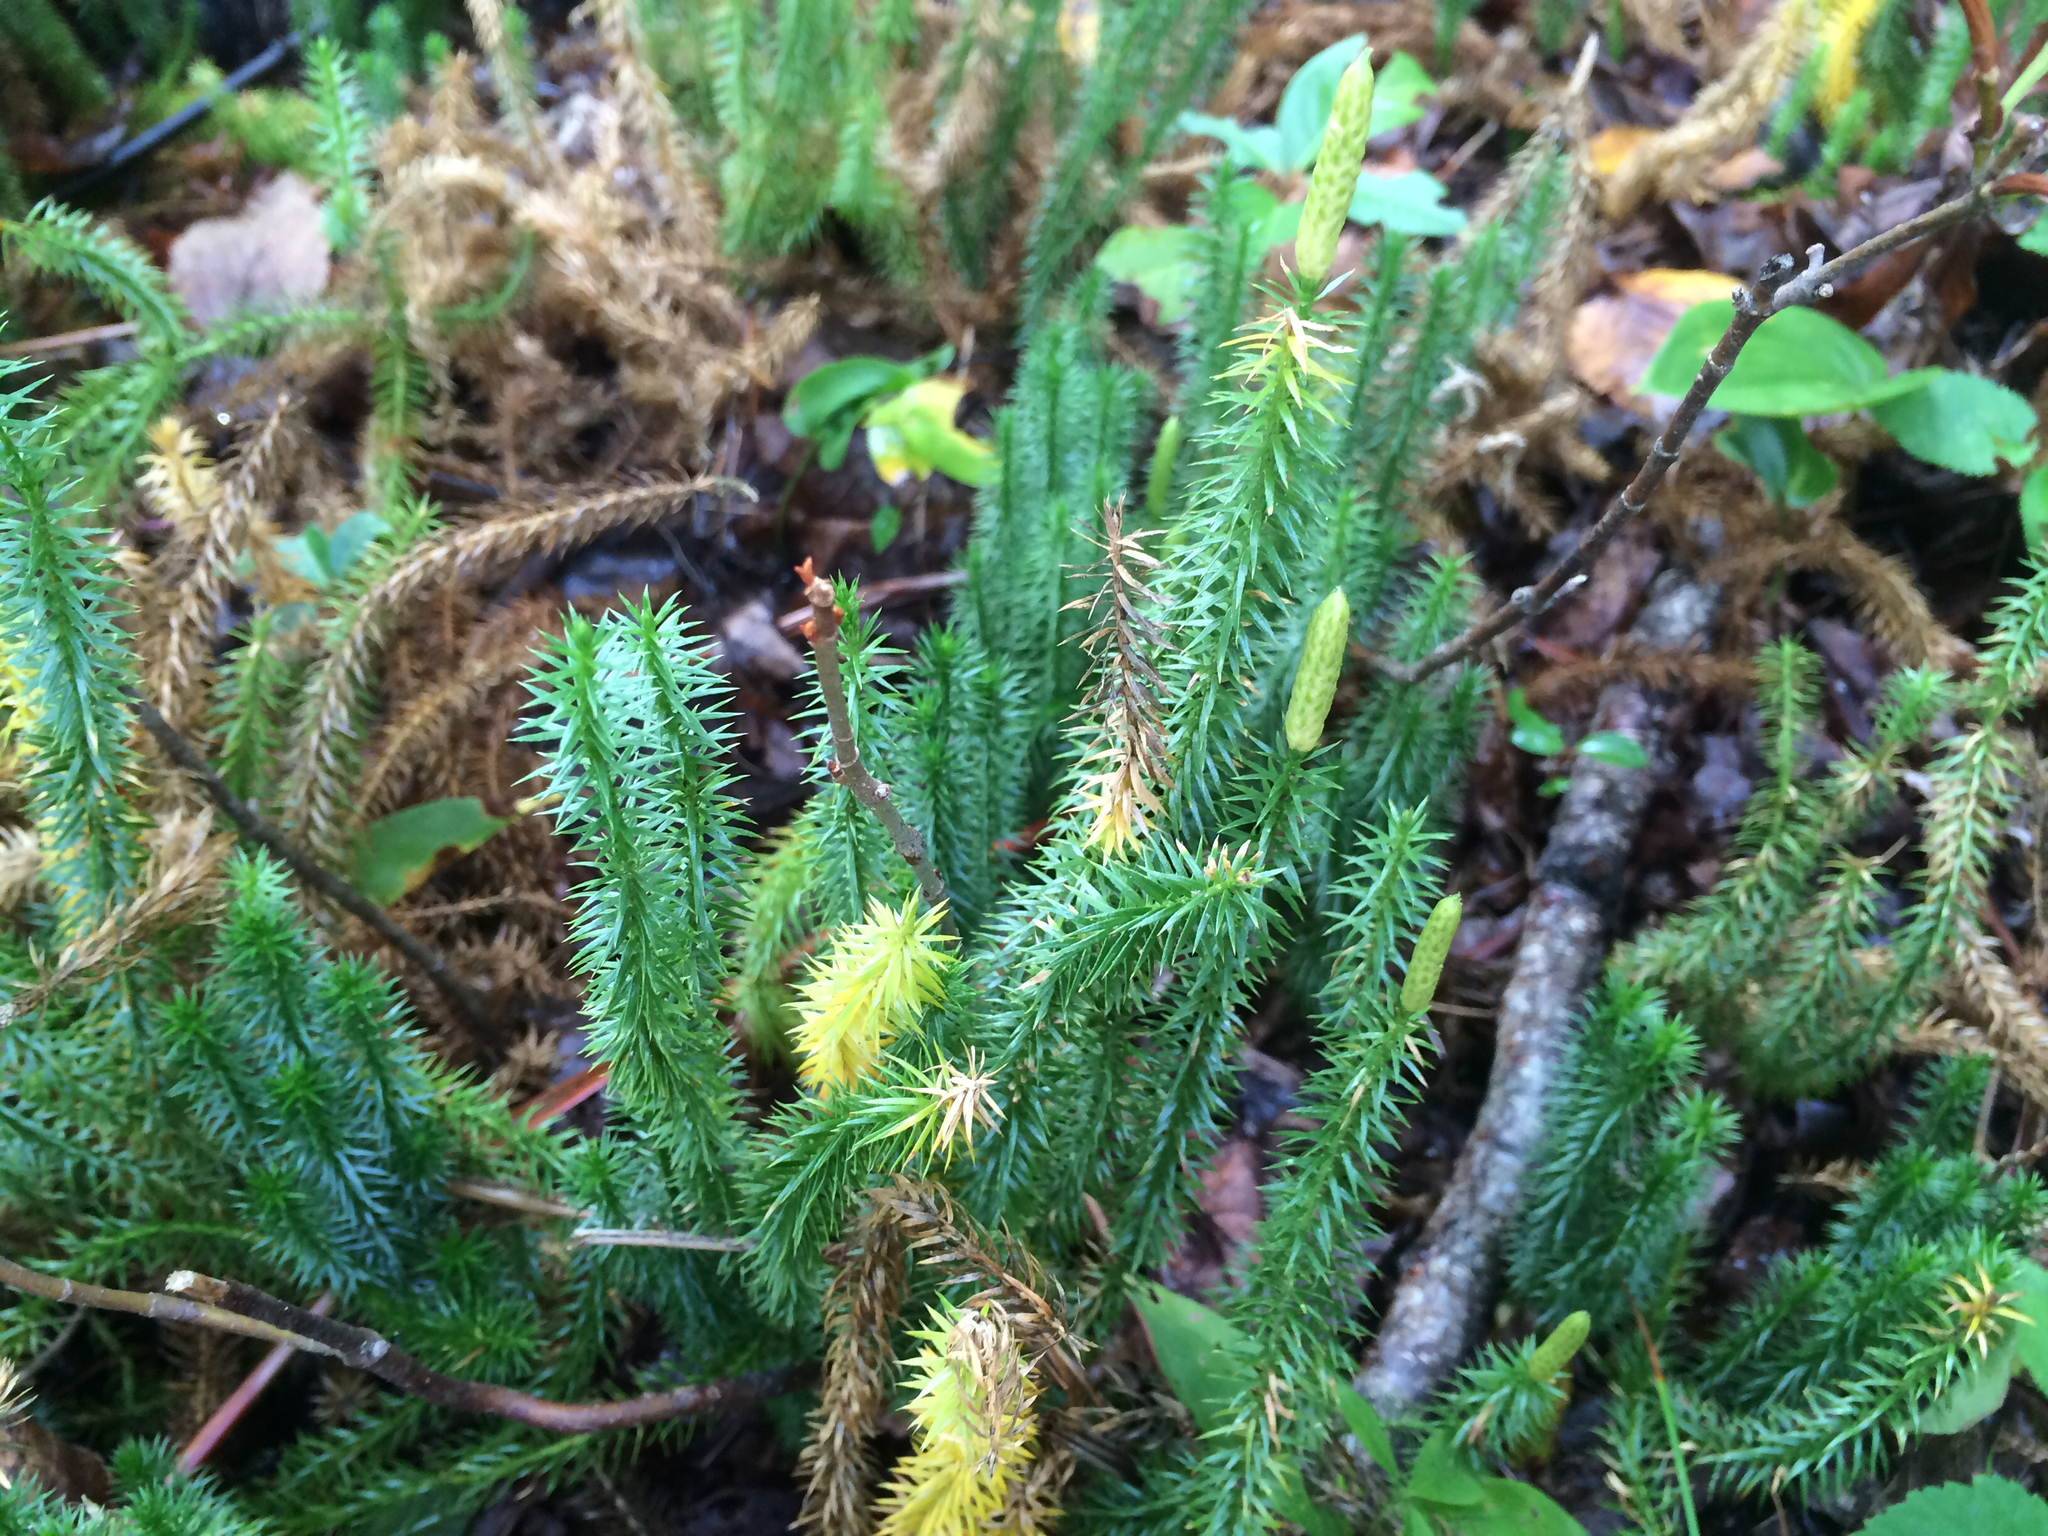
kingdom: Plantae
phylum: Tracheophyta
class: Lycopodiopsida
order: Lycopodiales
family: Lycopodiaceae
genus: Spinulum
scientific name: Spinulum annotinum
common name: Interrupted club-moss
